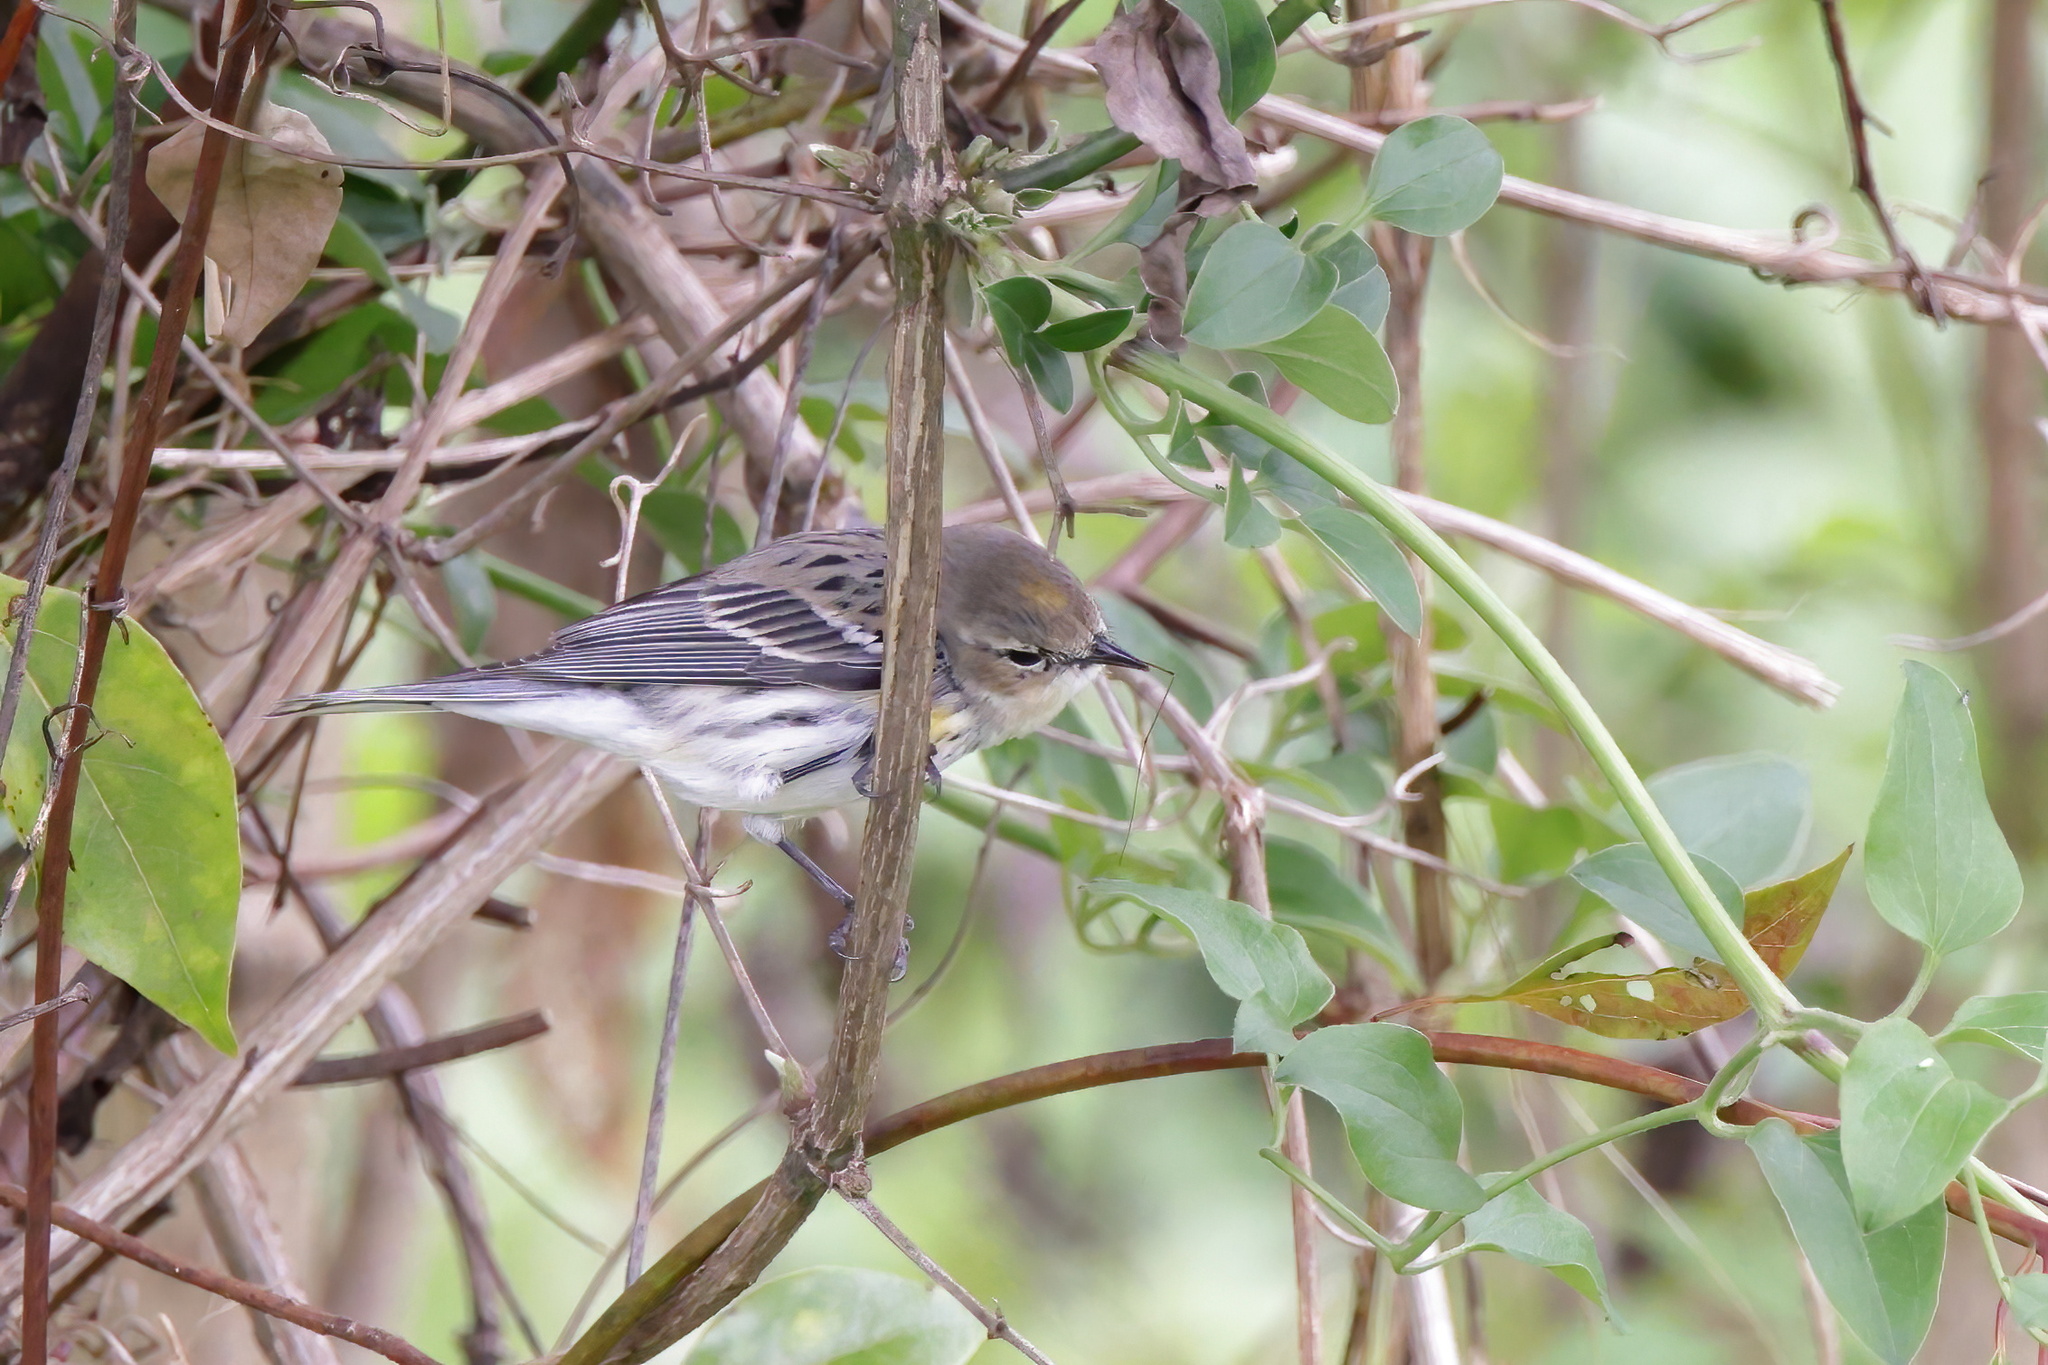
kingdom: Animalia
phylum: Chordata
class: Aves
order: Passeriformes
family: Parulidae
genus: Setophaga
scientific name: Setophaga coronata
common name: Myrtle warbler
